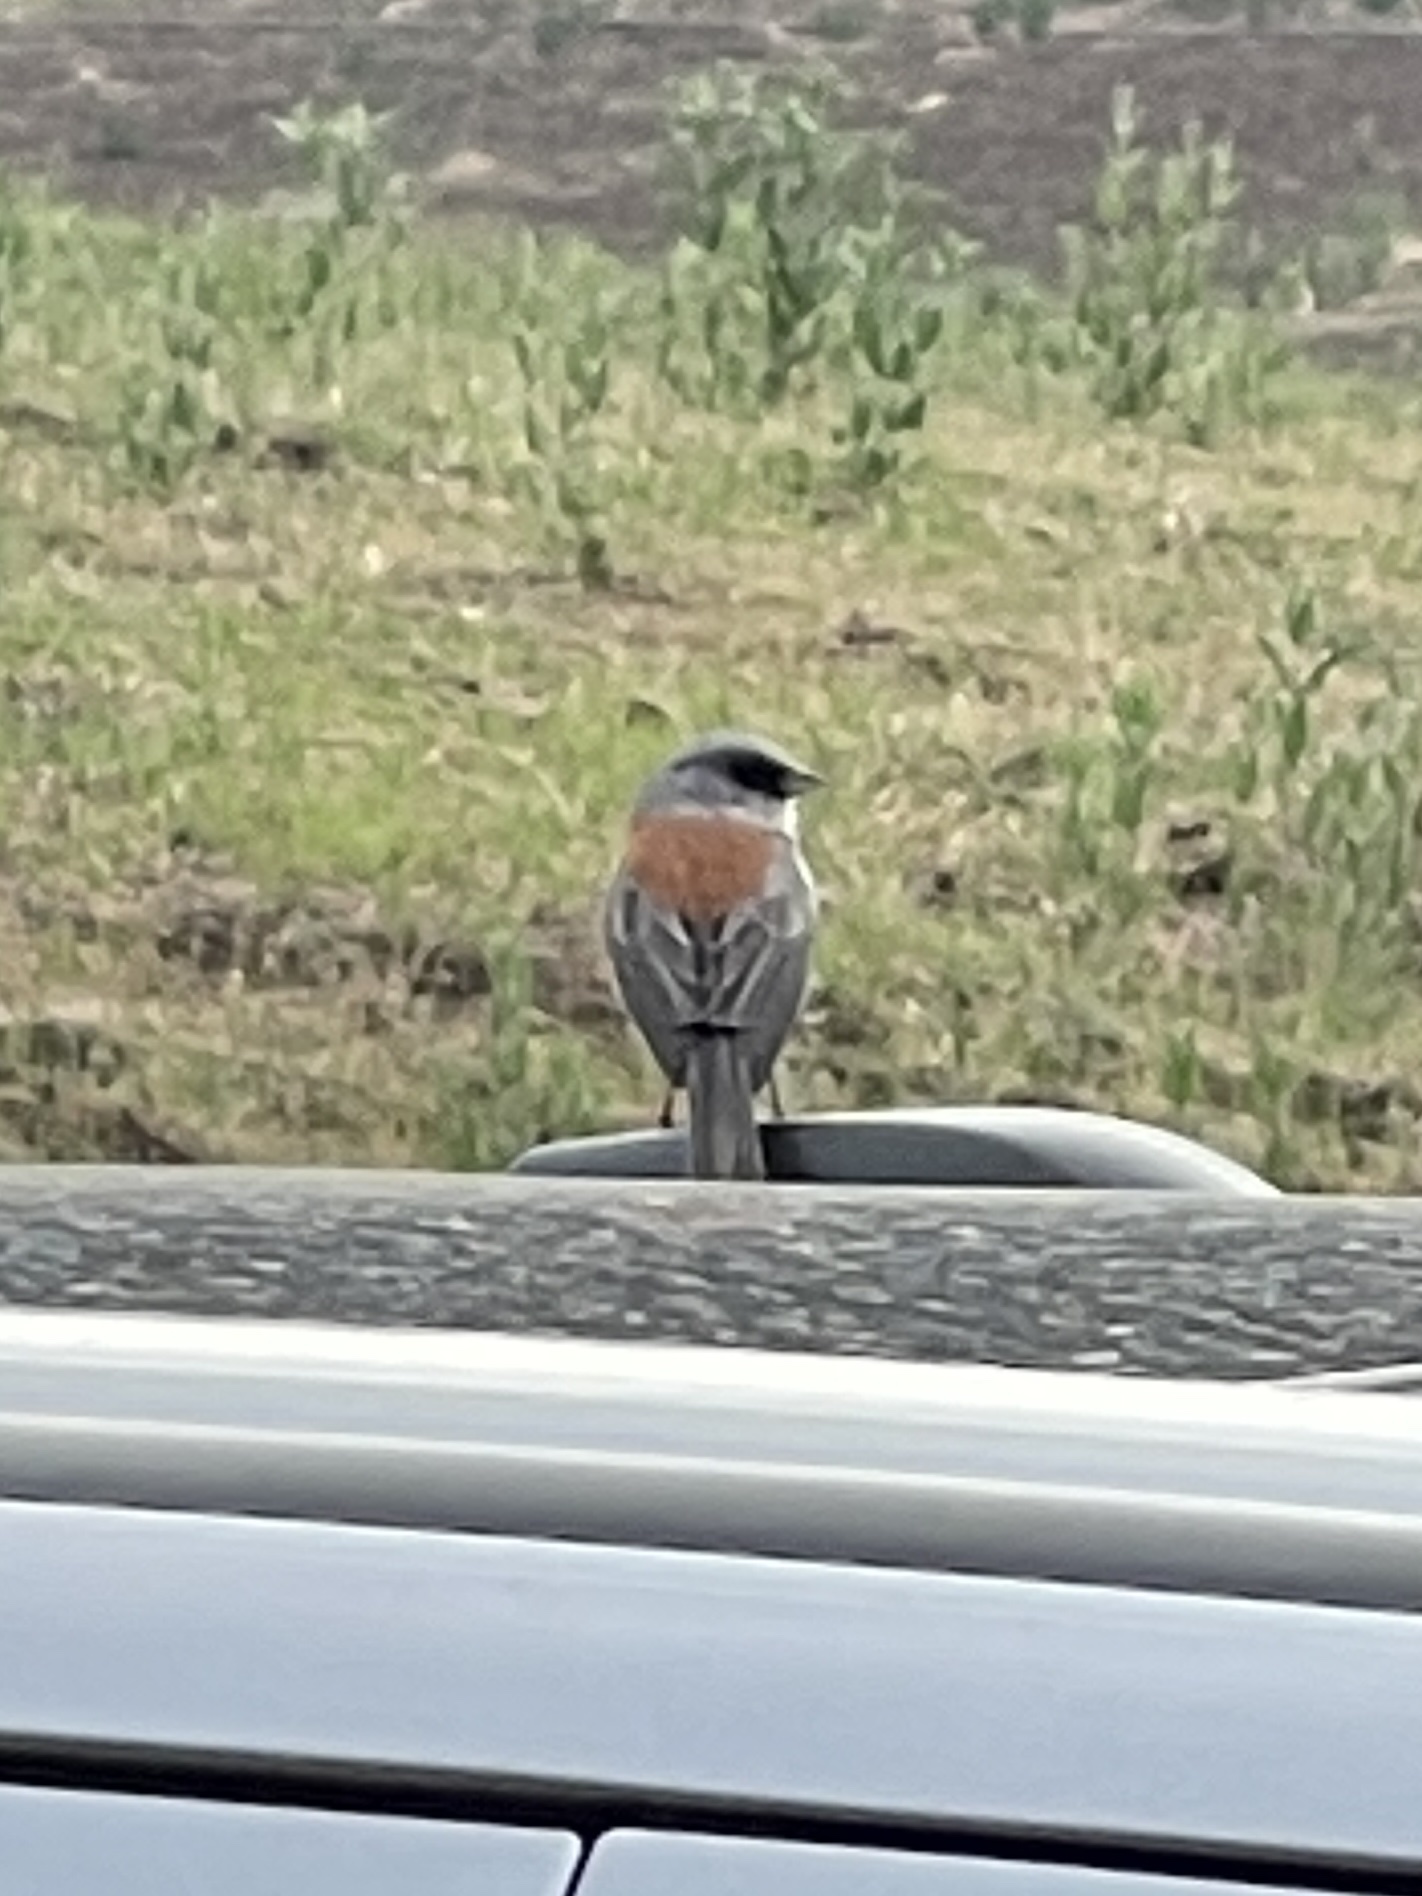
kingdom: Animalia
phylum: Chordata
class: Aves
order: Passeriformes
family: Passerellidae
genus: Junco
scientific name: Junco hyemalis
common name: Dark-eyed junco
